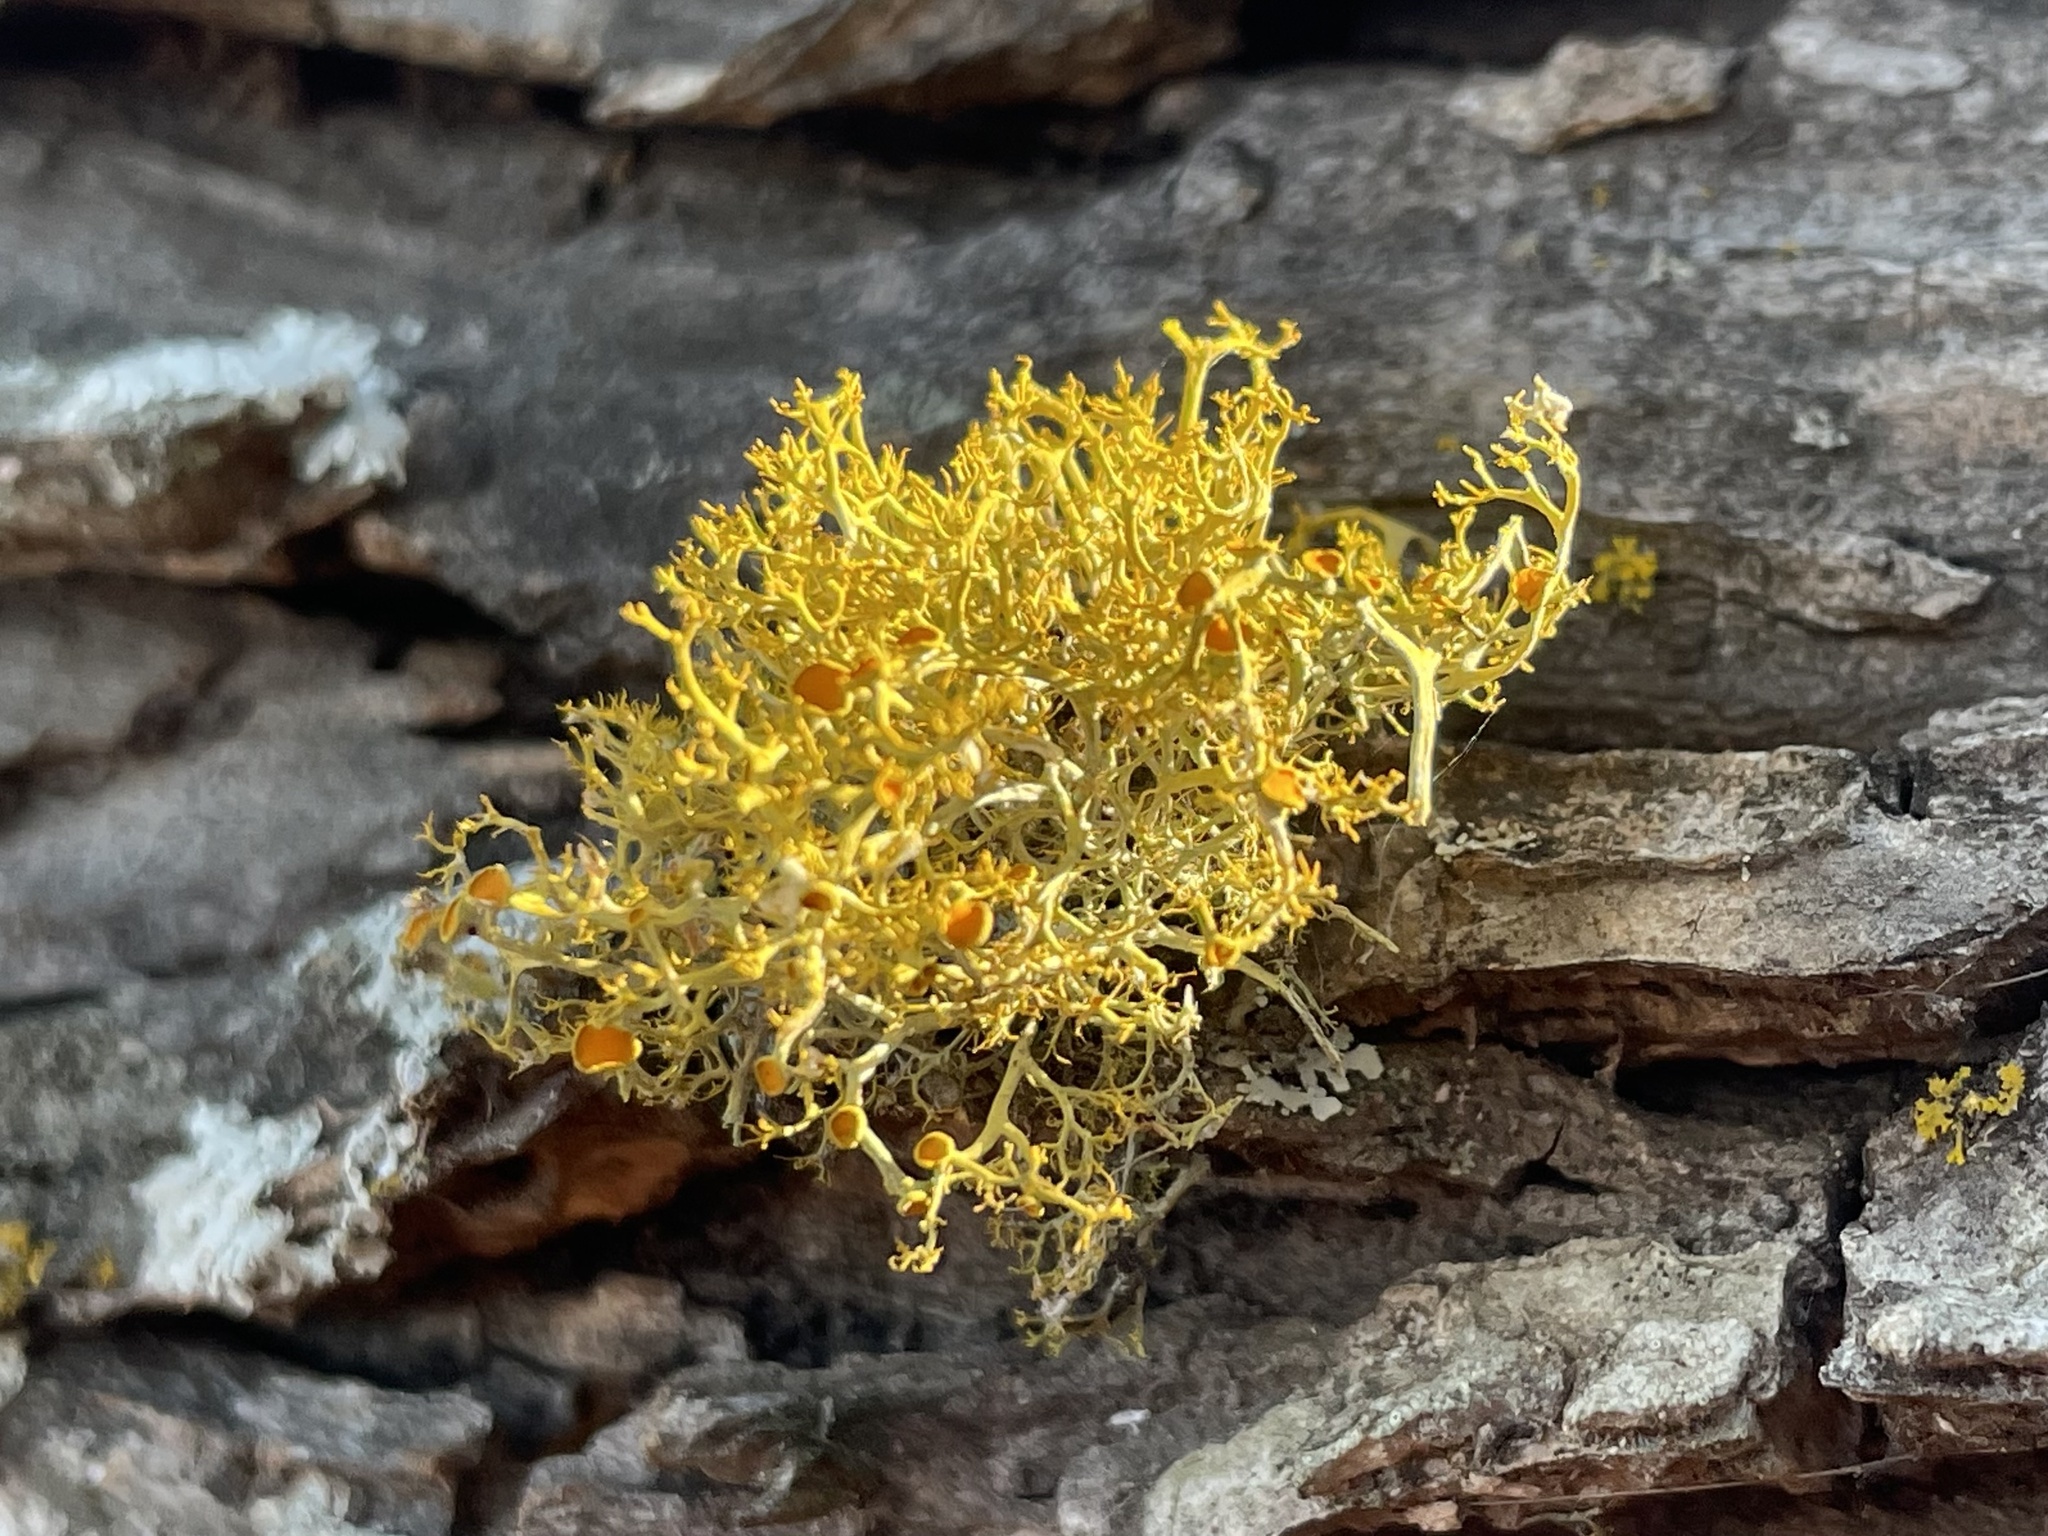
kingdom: Fungi
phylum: Ascomycota
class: Lecanoromycetes
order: Teloschistales
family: Teloschistaceae
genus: Teloschistes
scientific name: Teloschistes exilis
